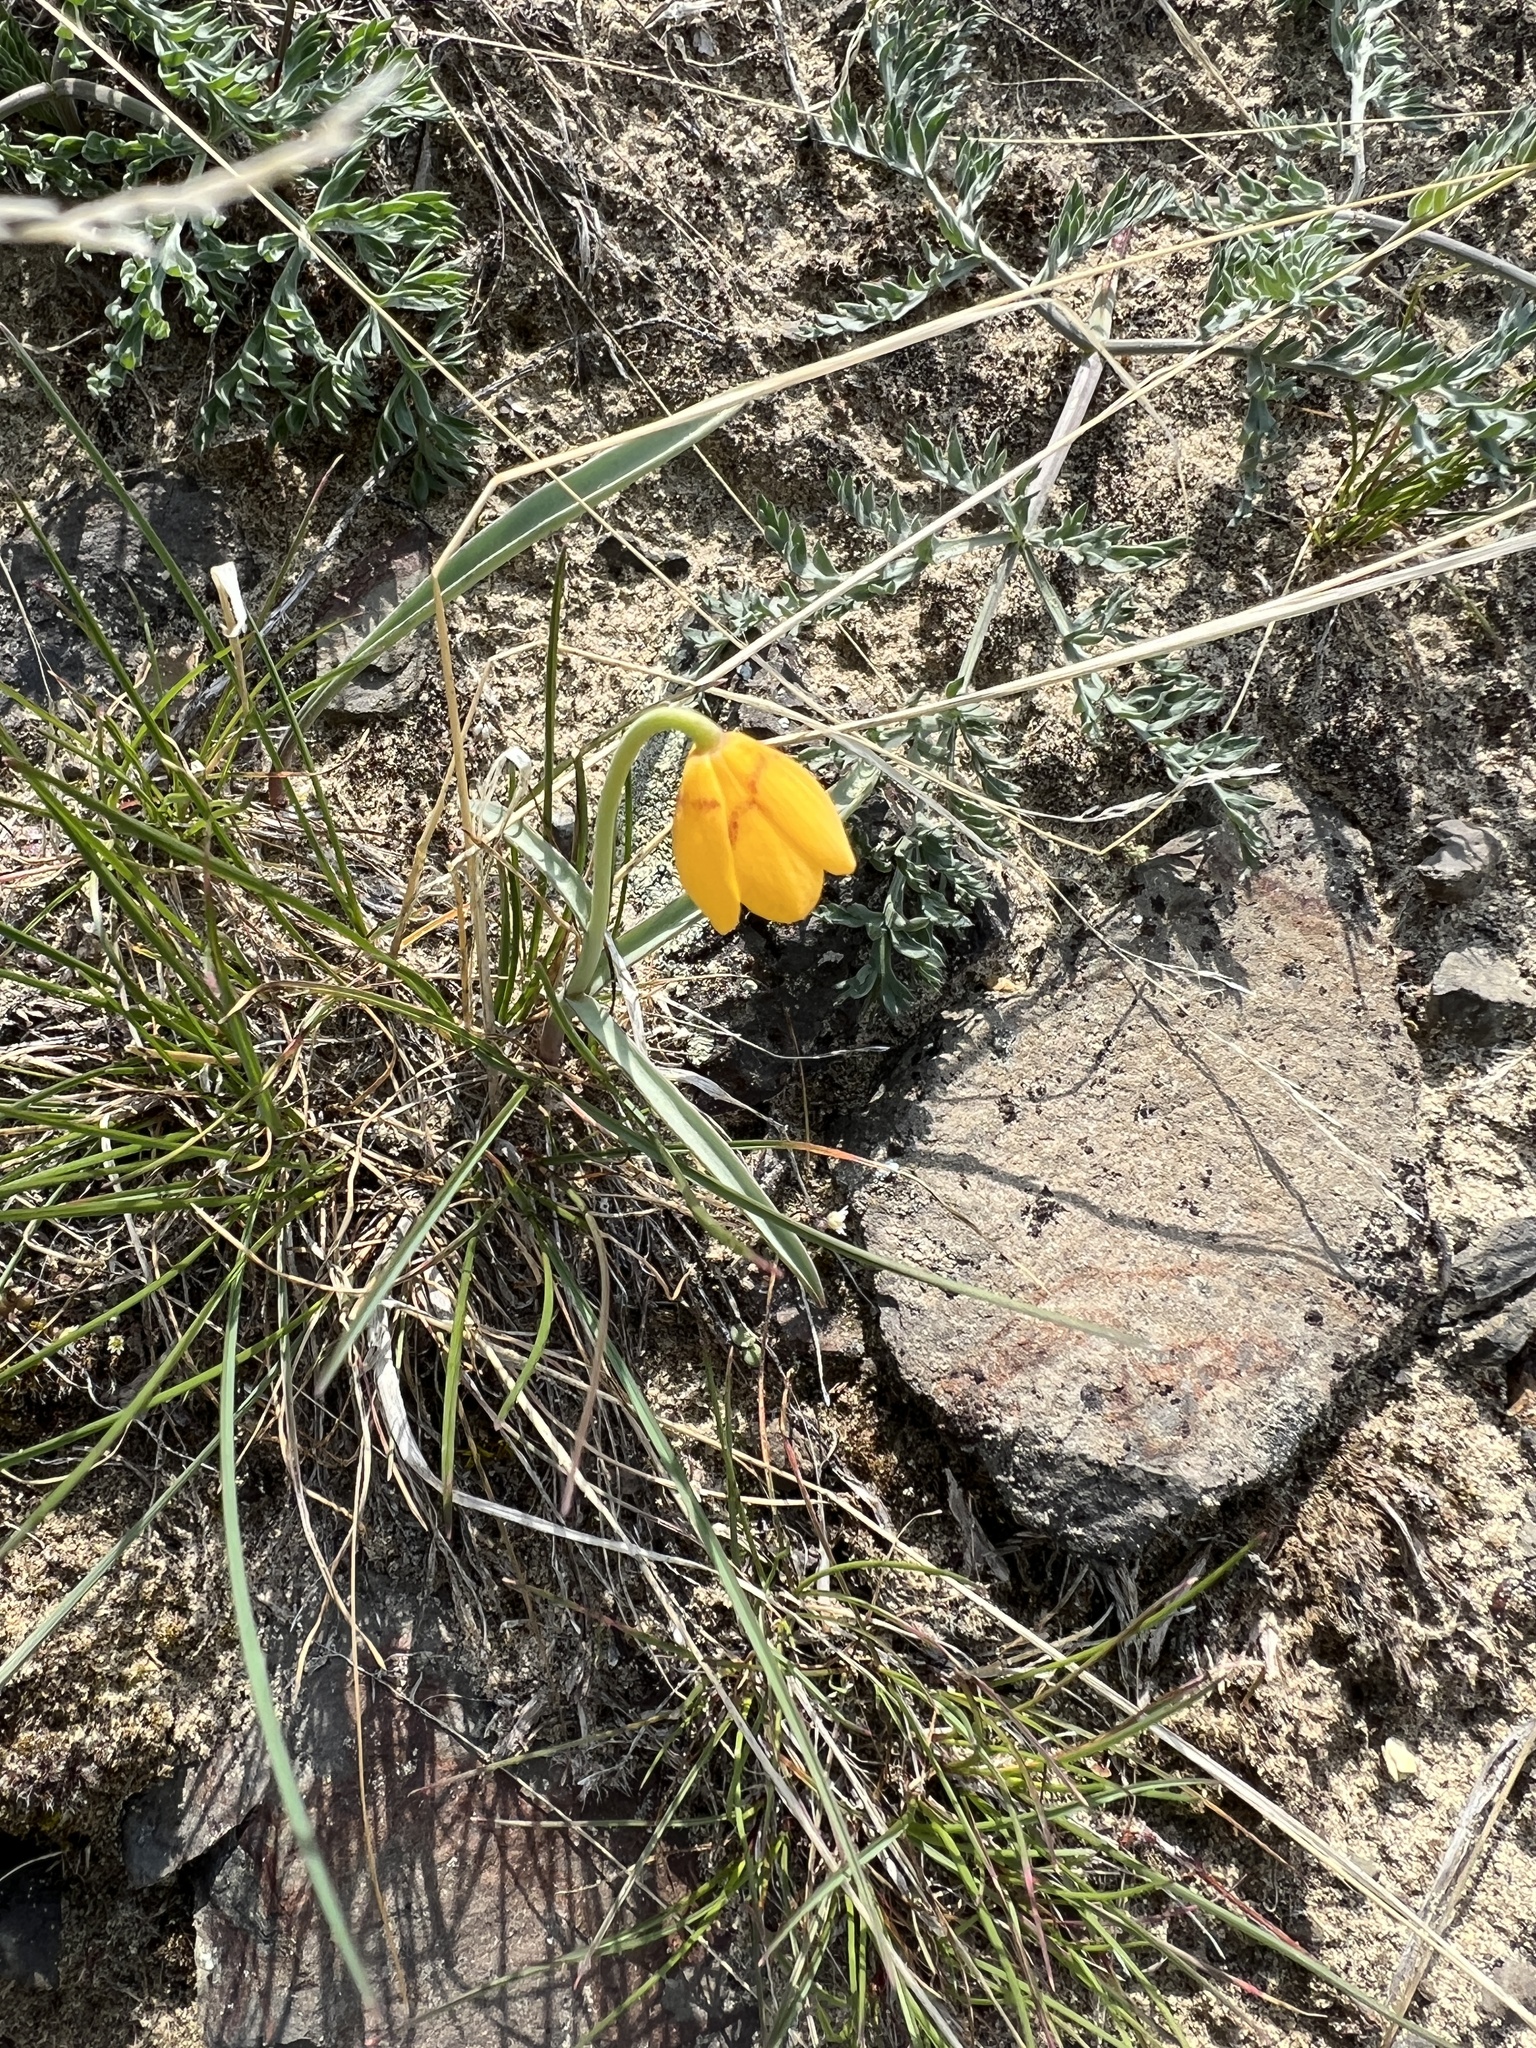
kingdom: Plantae
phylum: Tracheophyta
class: Liliopsida
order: Liliales
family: Liliaceae
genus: Fritillaria
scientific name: Fritillaria pudica
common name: Yellow fritillary
